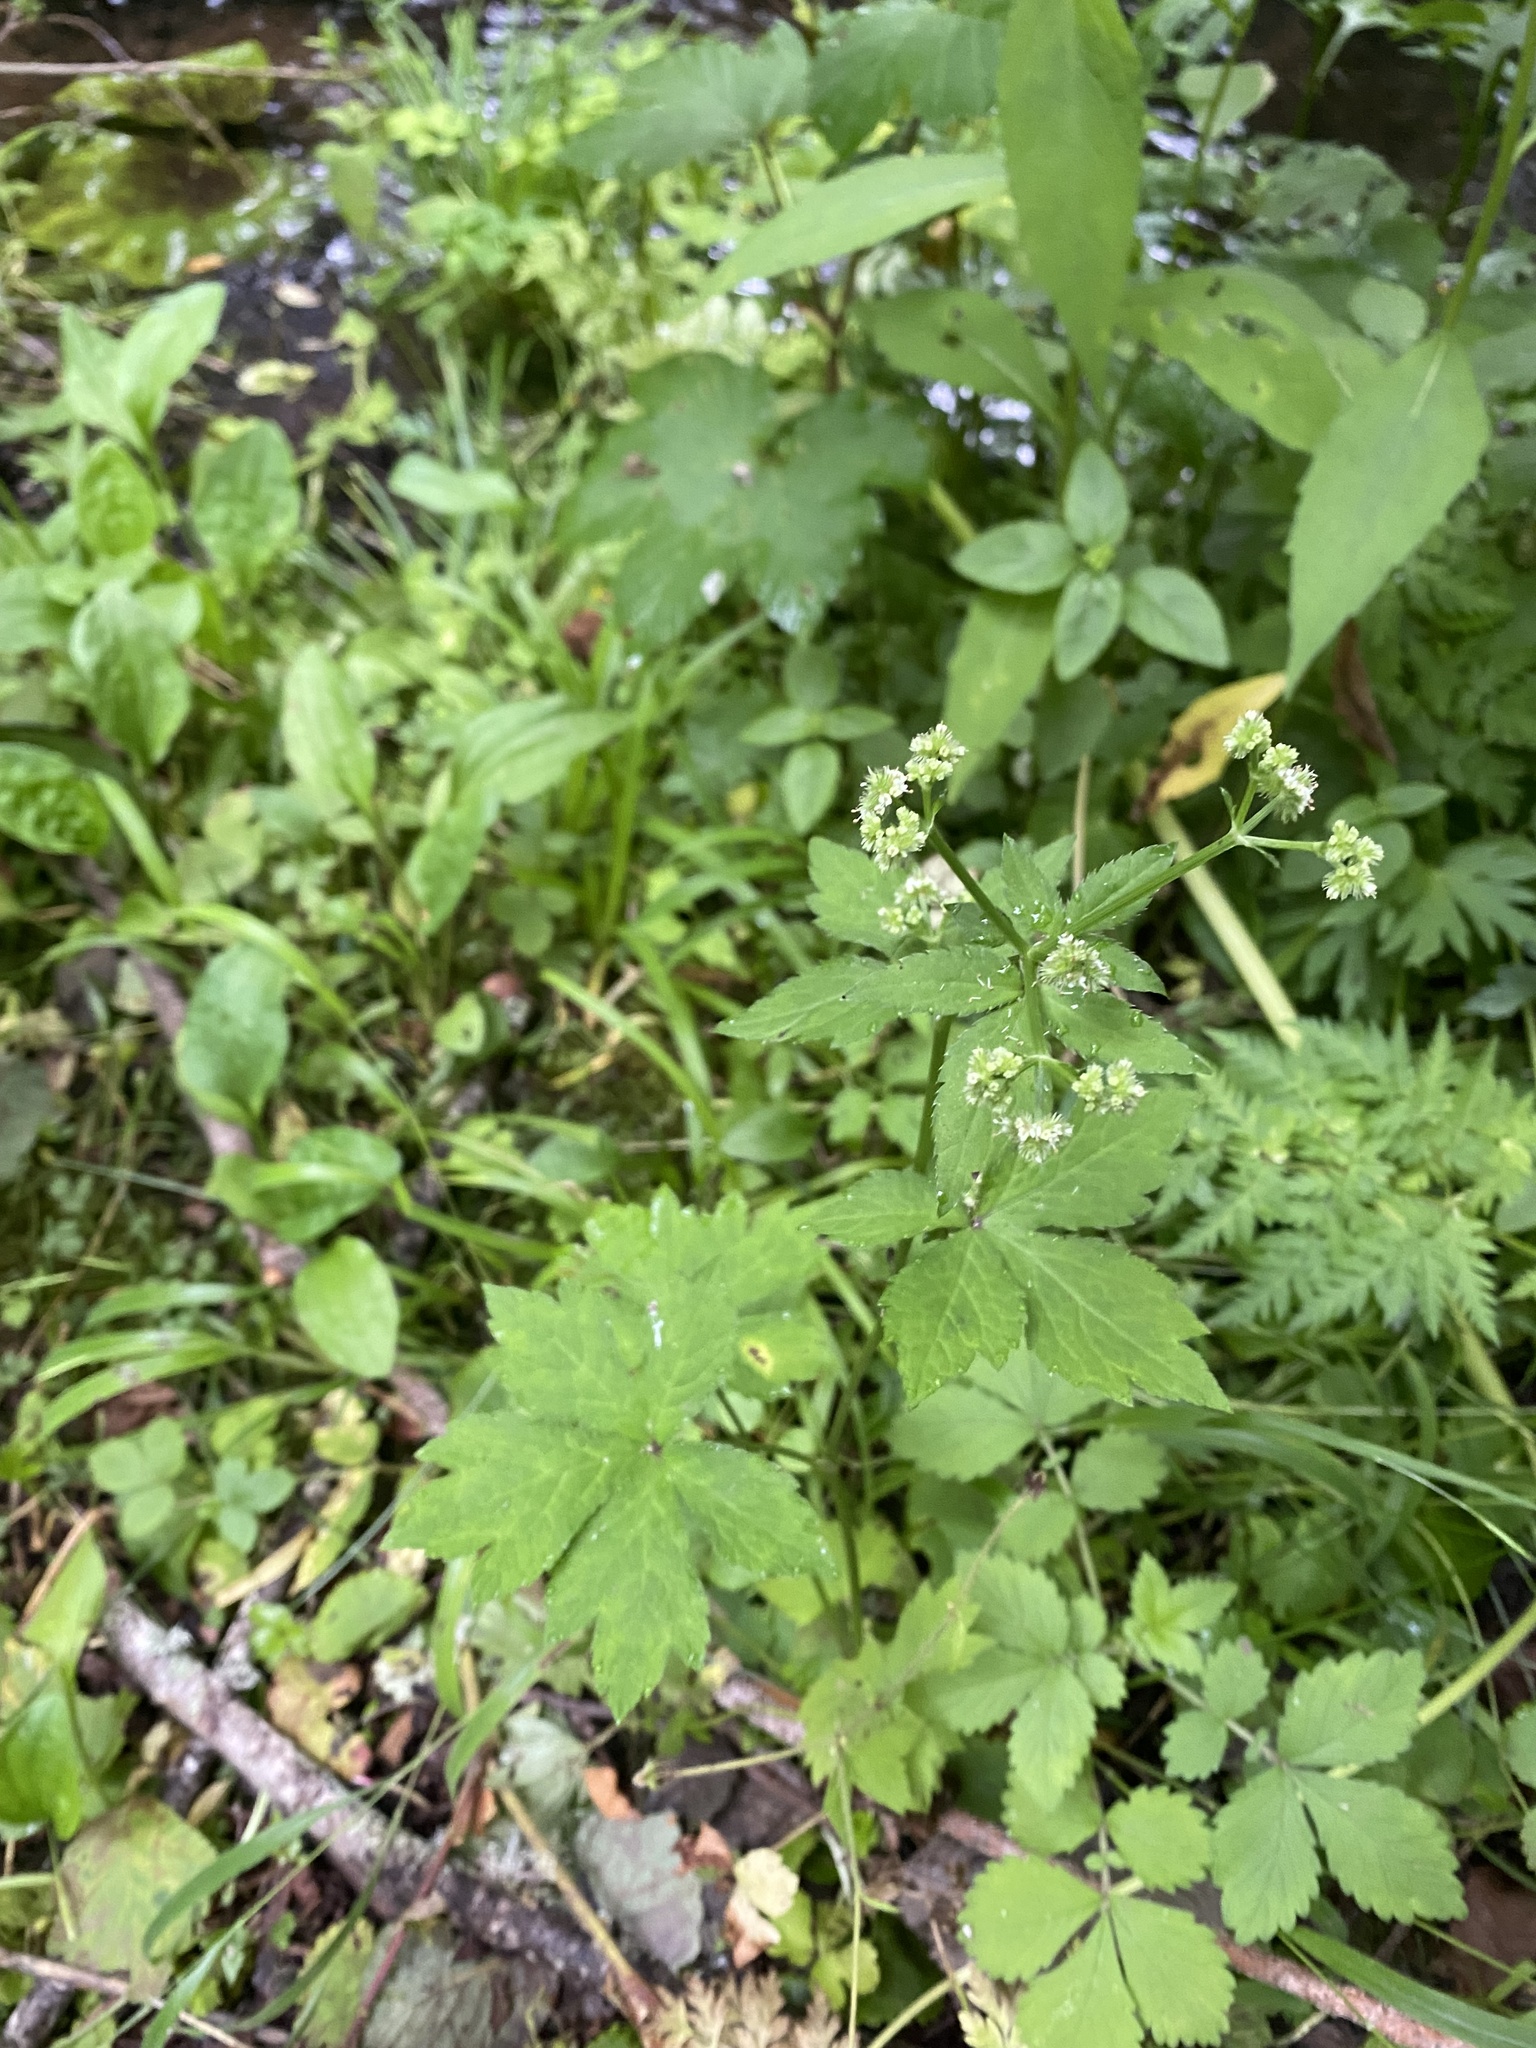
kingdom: Plantae
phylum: Tracheophyta
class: Magnoliopsida
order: Apiales
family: Apiaceae
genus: Sanicula
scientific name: Sanicula chinensis
